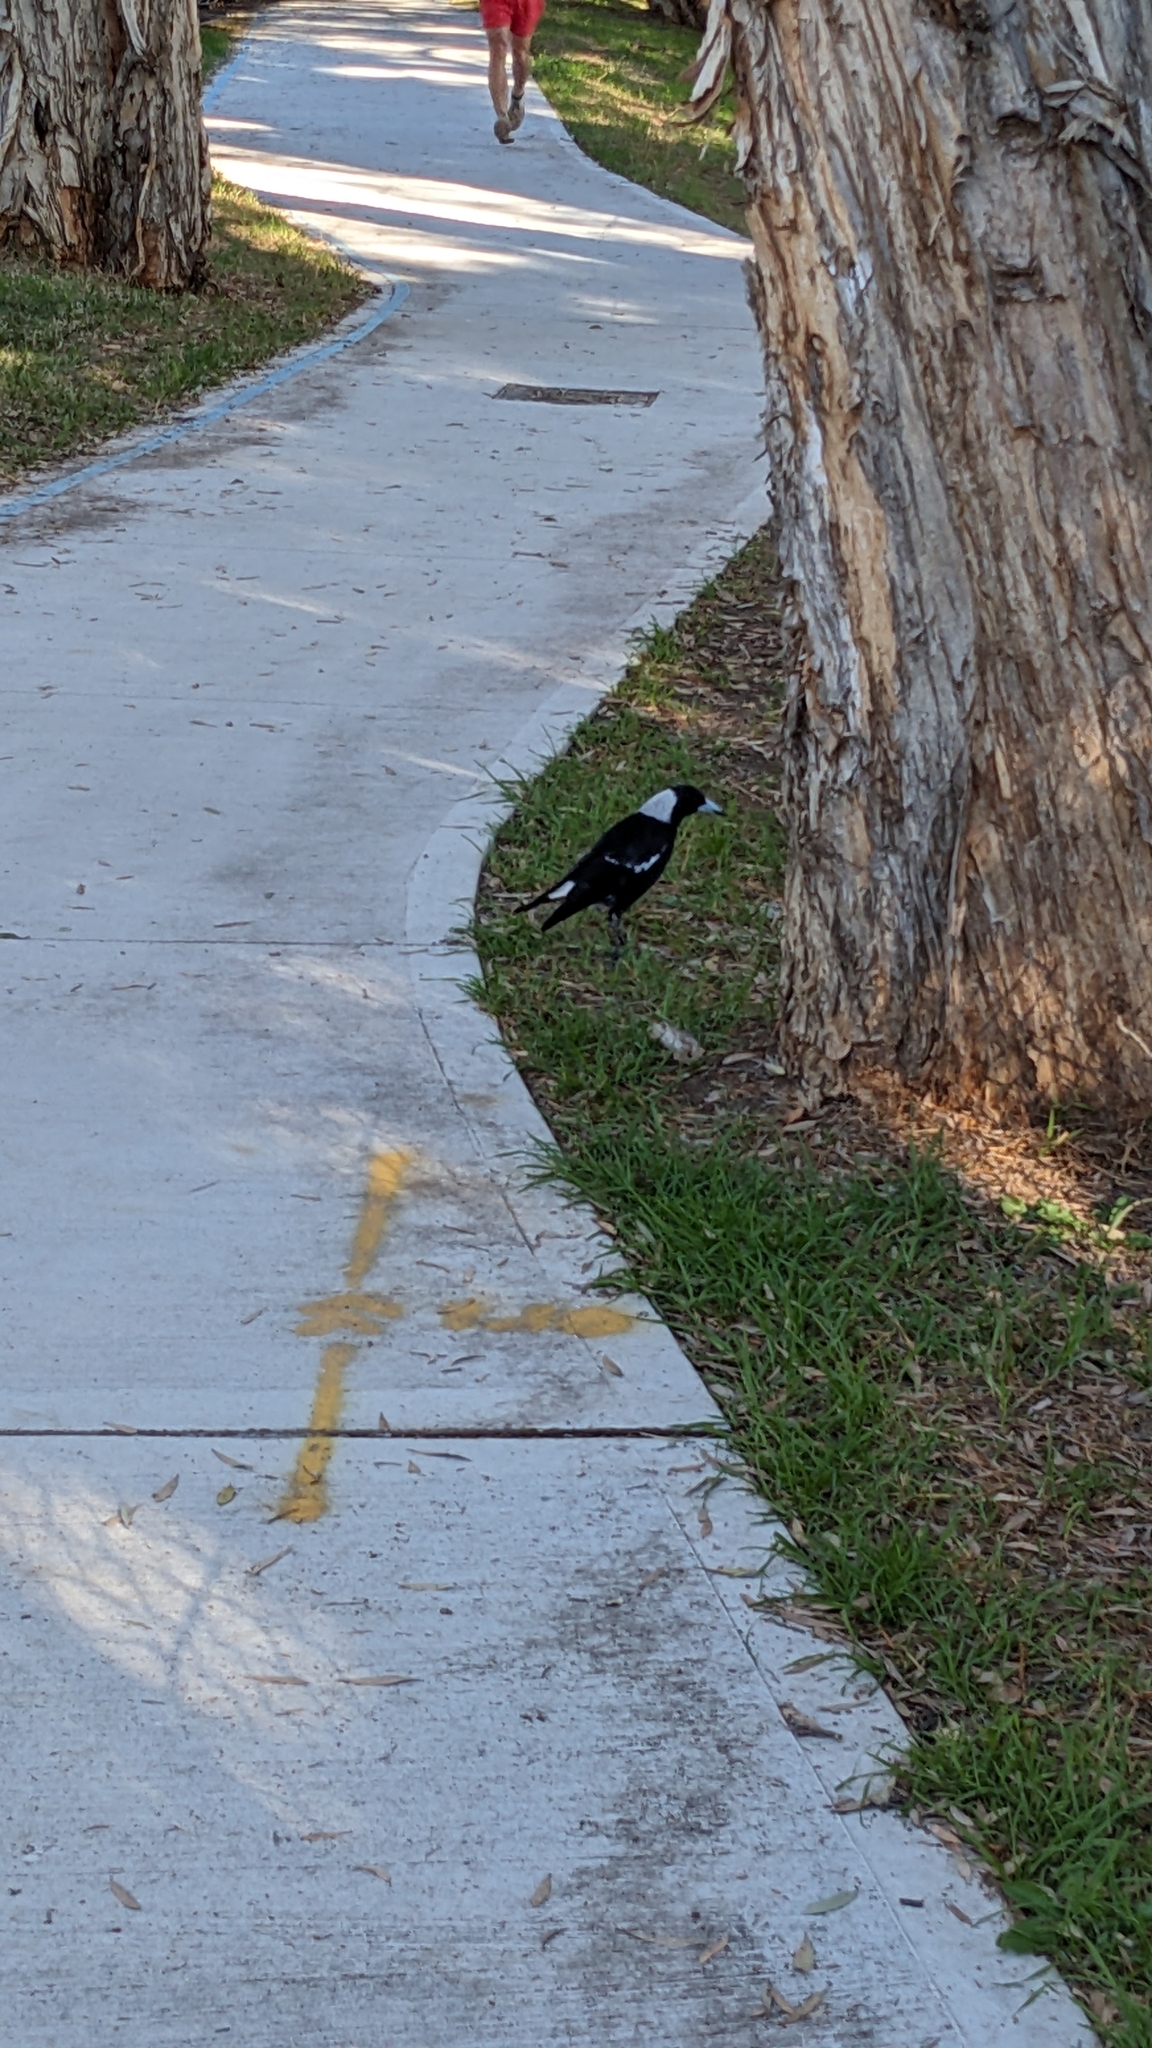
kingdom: Animalia
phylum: Chordata
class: Aves
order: Passeriformes
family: Cracticidae
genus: Gymnorhina
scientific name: Gymnorhina tibicen
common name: Australian magpie
